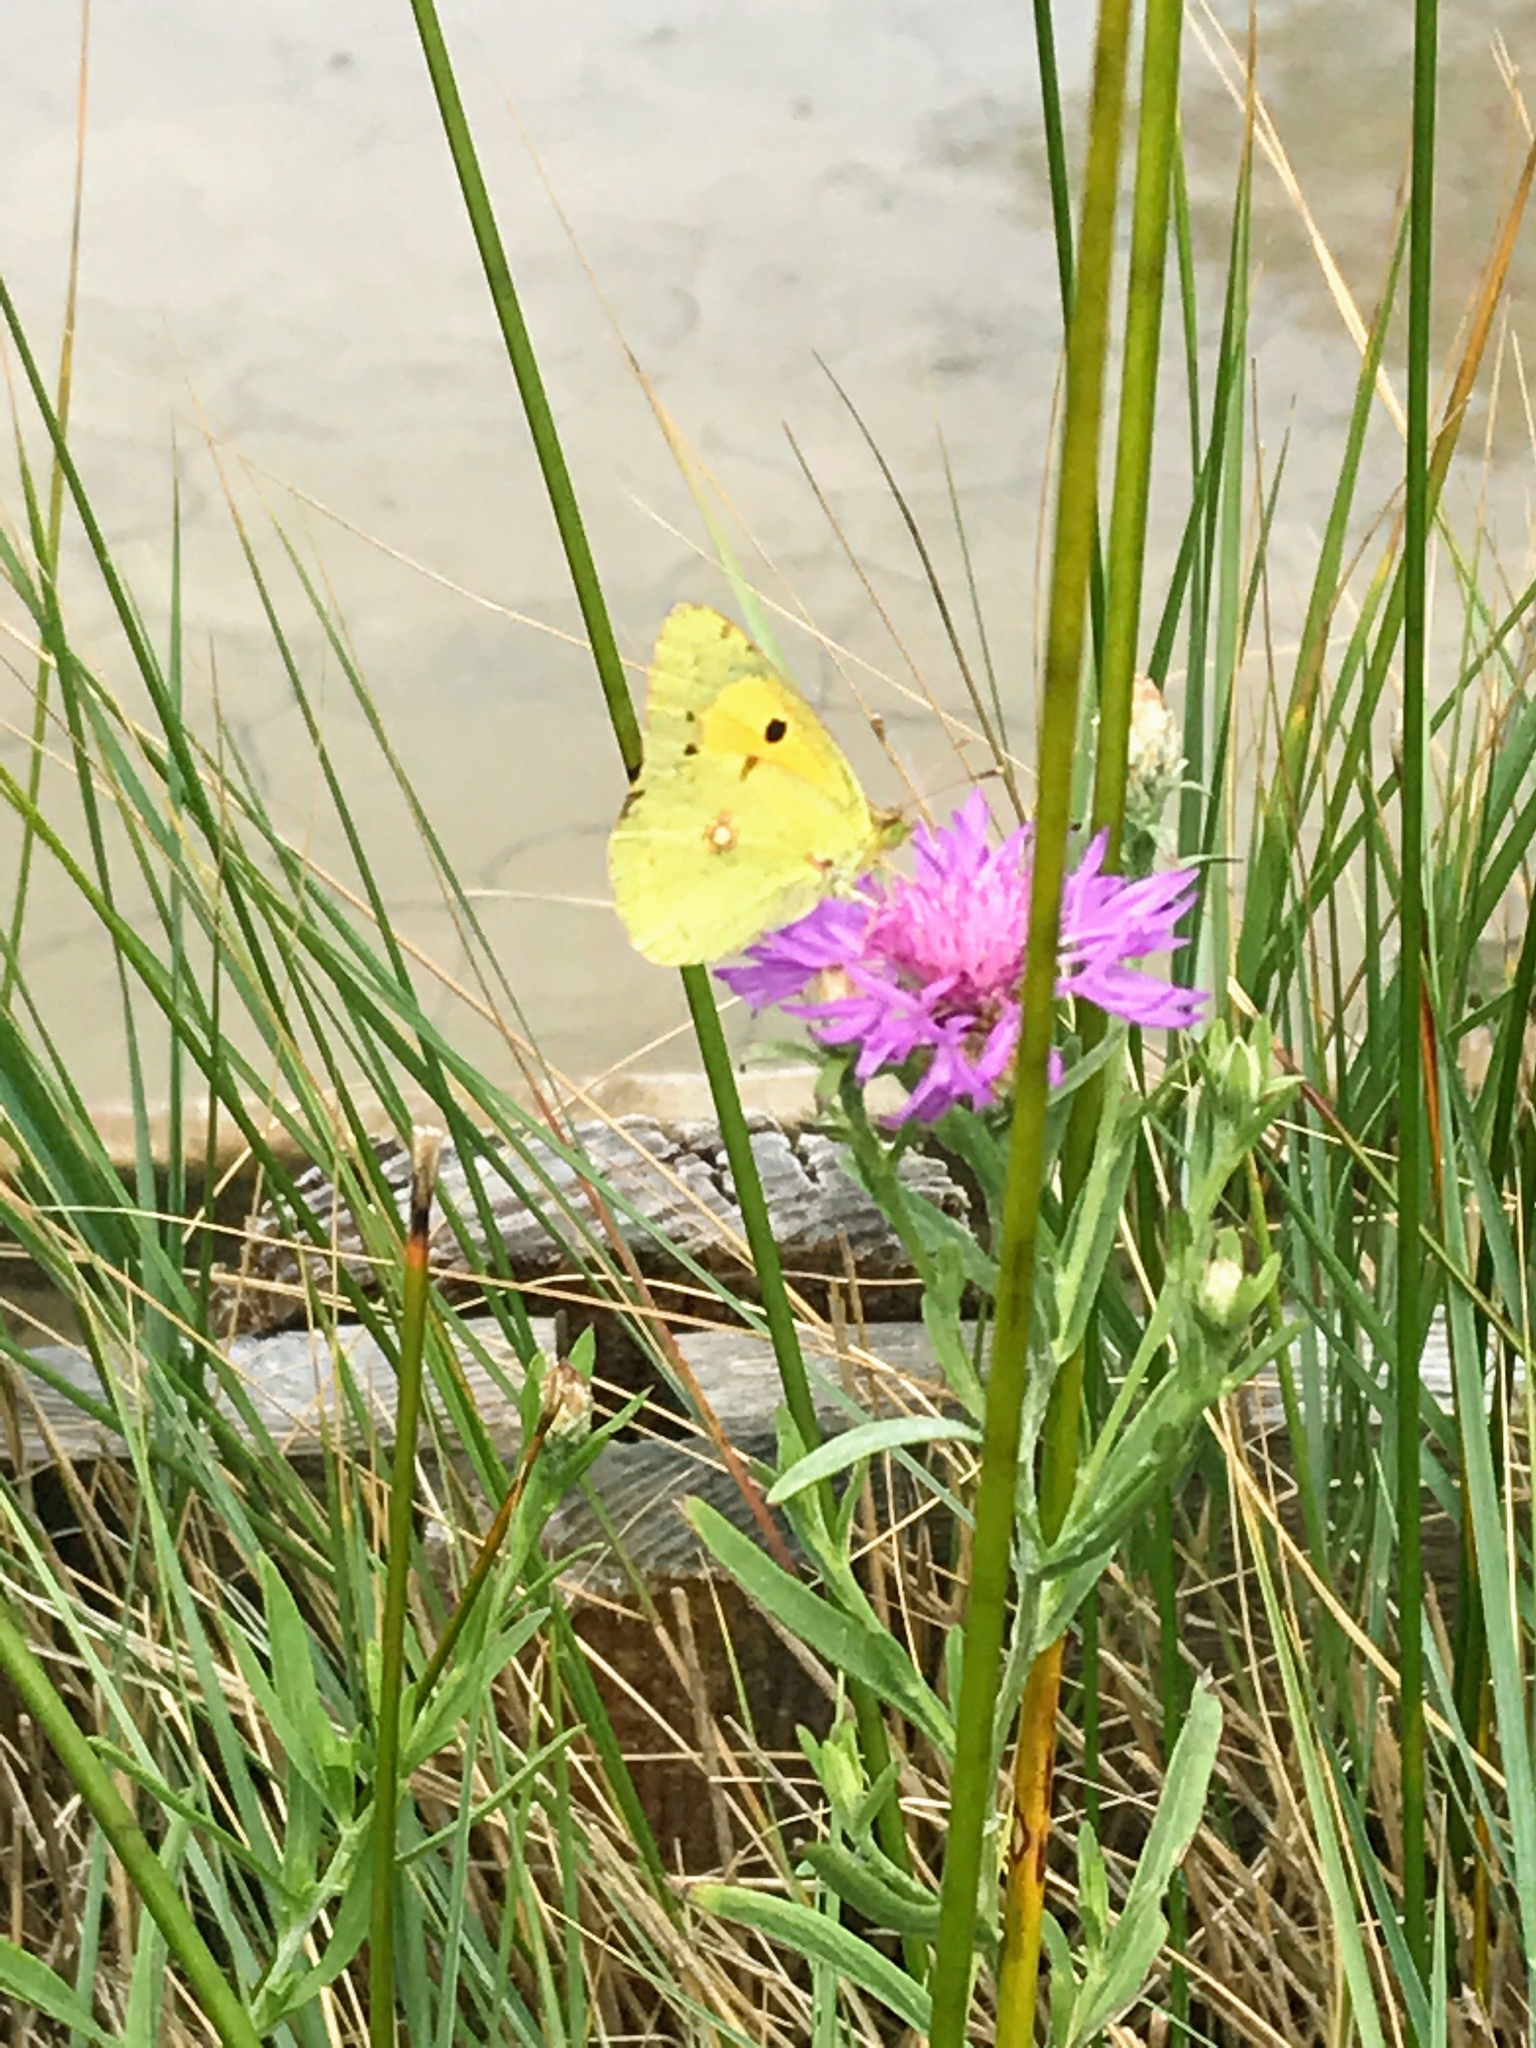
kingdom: Animalia
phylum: Arthropoda
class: Insecta
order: Lepidoptera
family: Pieridae
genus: Colias
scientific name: Colias croceus
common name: Clouded yellow
